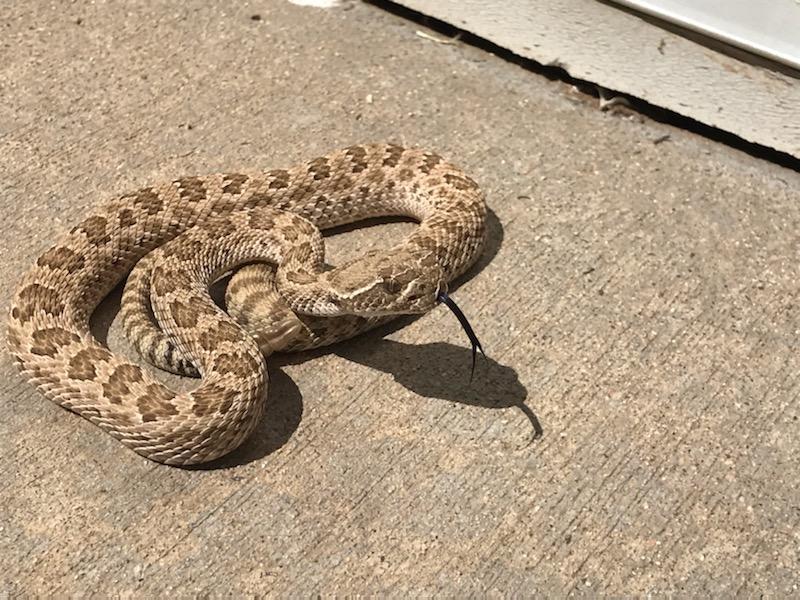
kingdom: Animalia
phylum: Chordata
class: Squamata
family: Viperidae
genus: Crotalus
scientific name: Crotalus viridis
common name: Prairie rattlesnake
